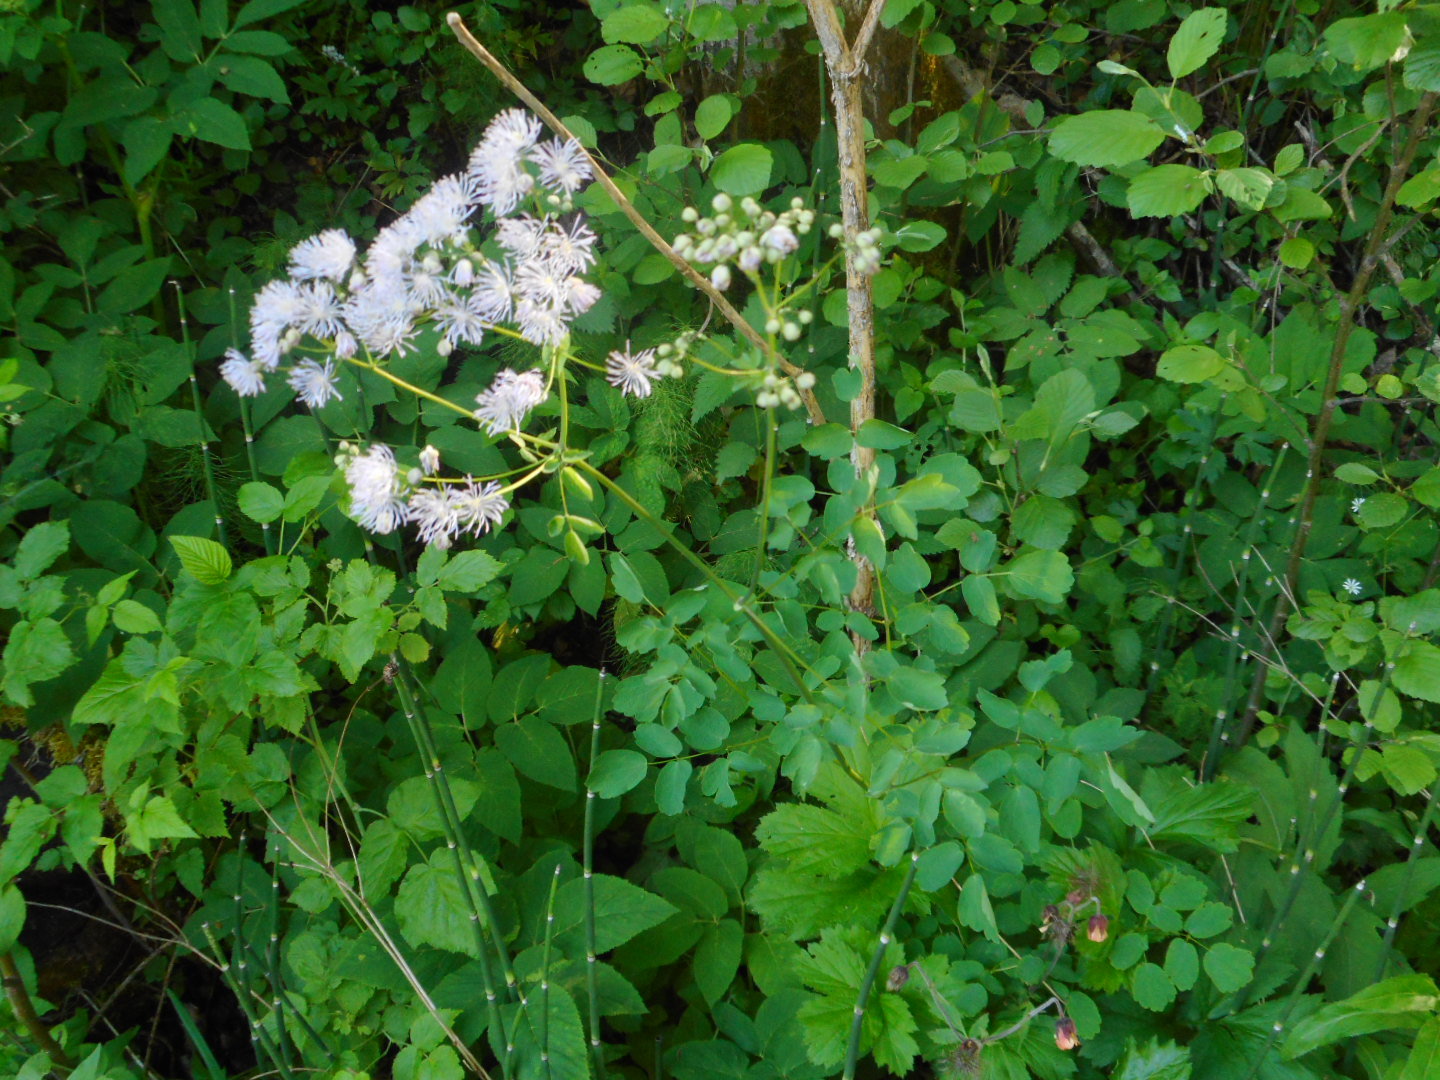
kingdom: Plantae
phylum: Tracheophyta
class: Magnoliopsida
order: Ranunculales
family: Ranunculaceae
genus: Thalictrum
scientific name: Thalictrum aquilegiifolium
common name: French meadow-rue
